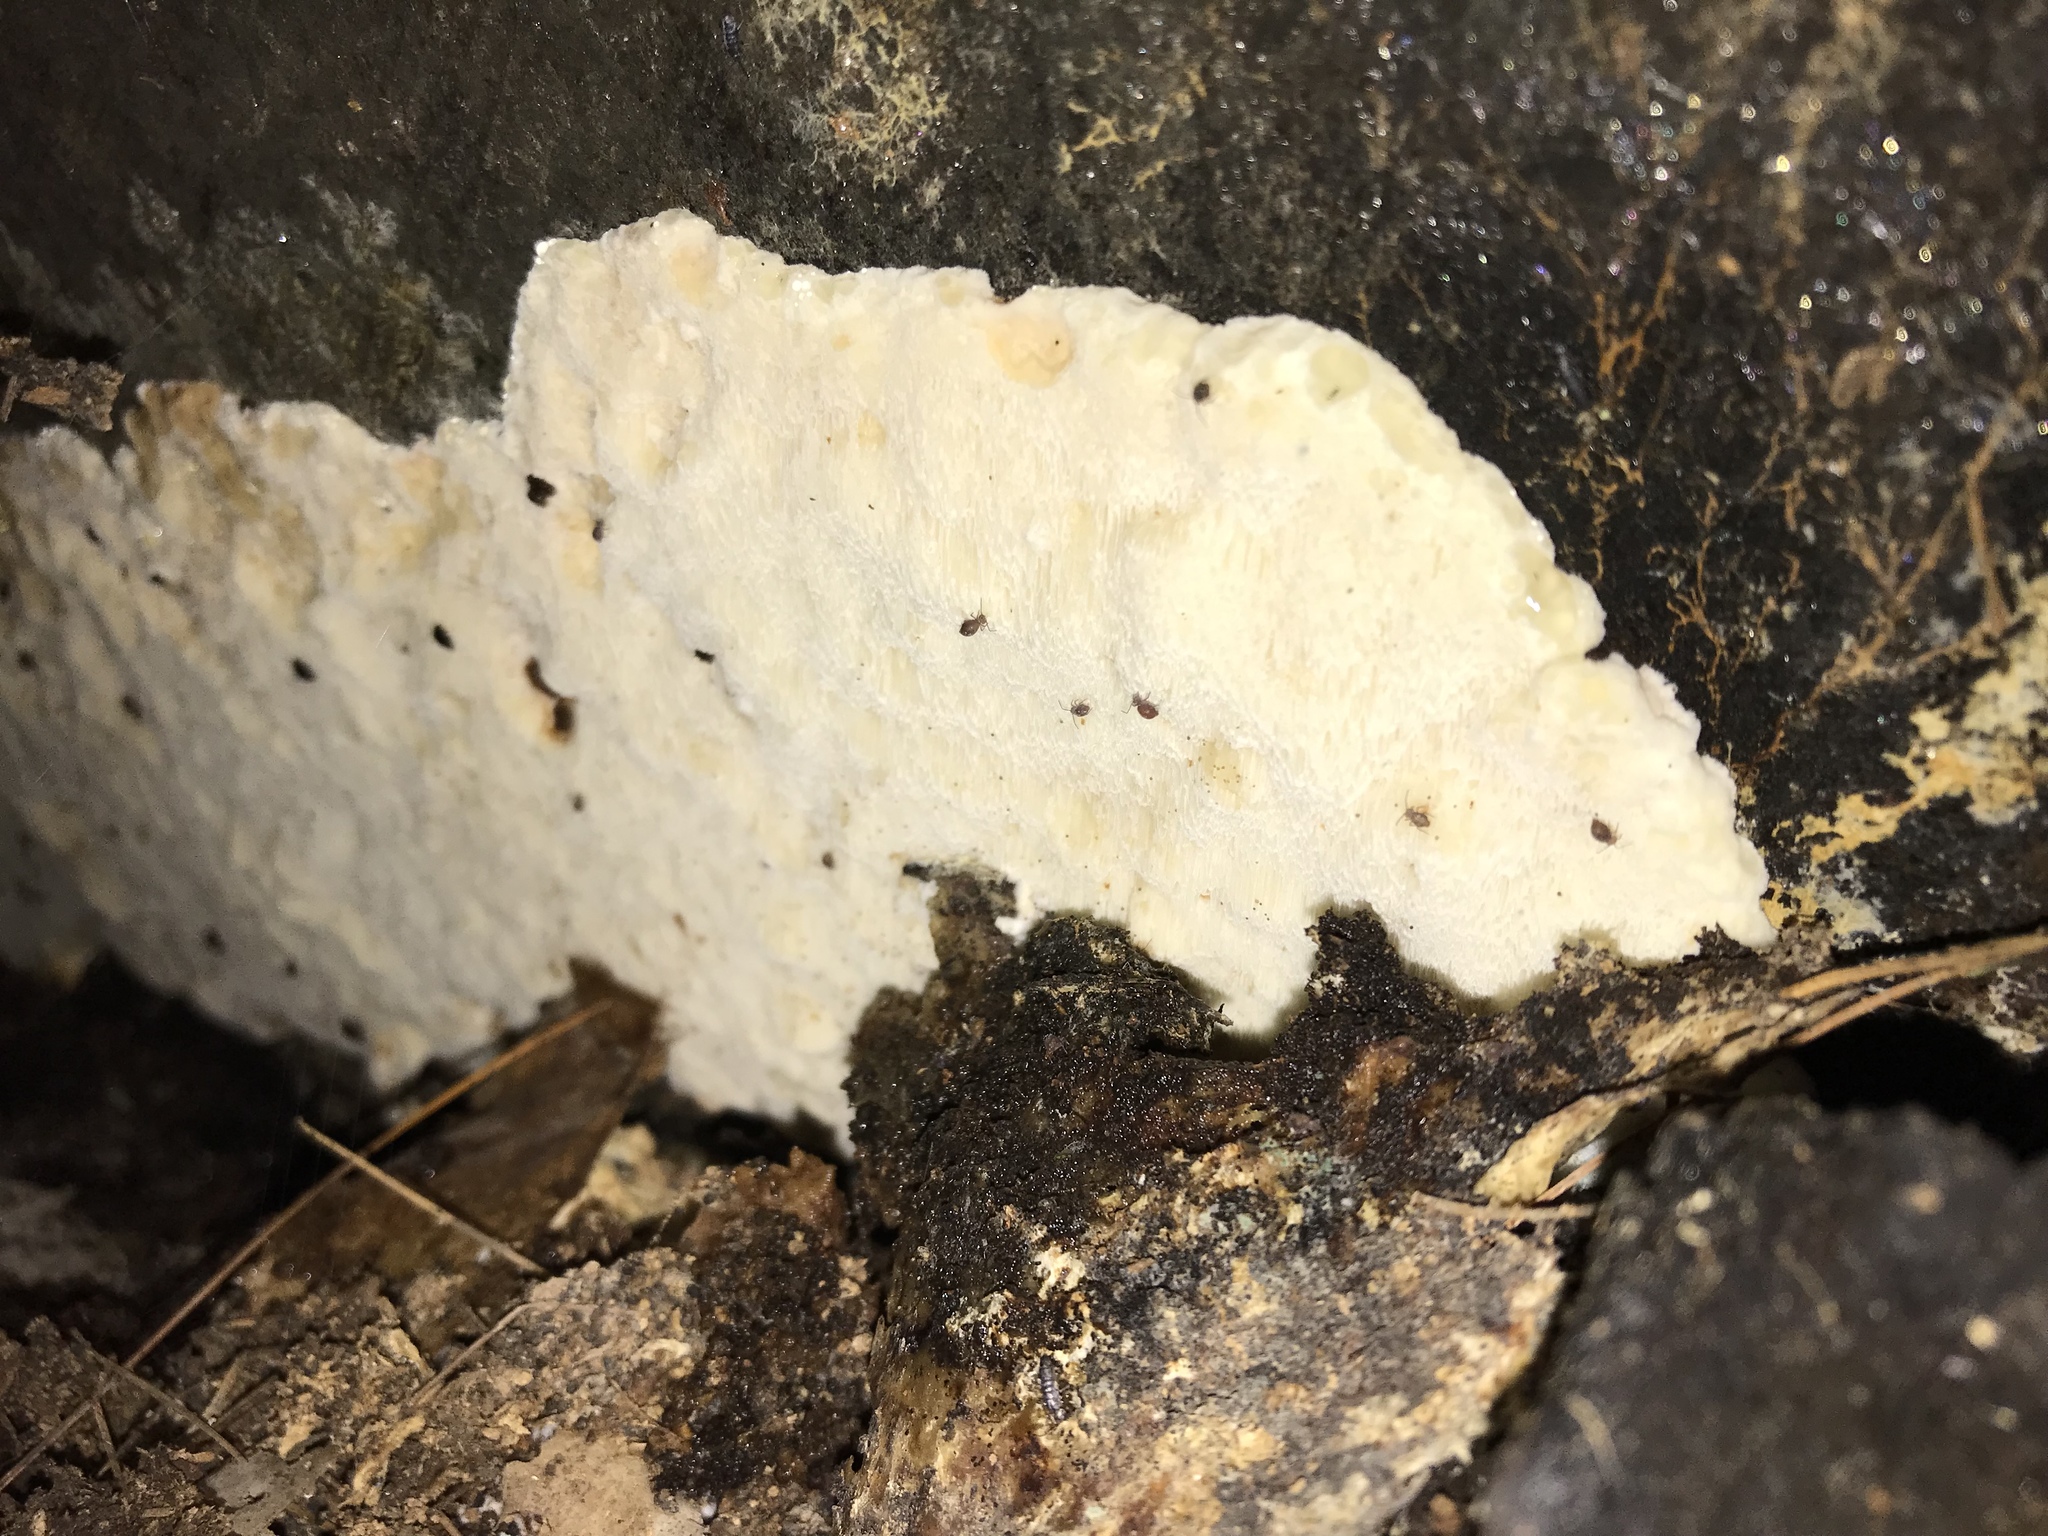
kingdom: Fungi
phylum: Basidiomycota
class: Agaricomycetes
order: Polyporales
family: Sarcoporiaceae
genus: Sarcoporia
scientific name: Sarcoporia polyspora
